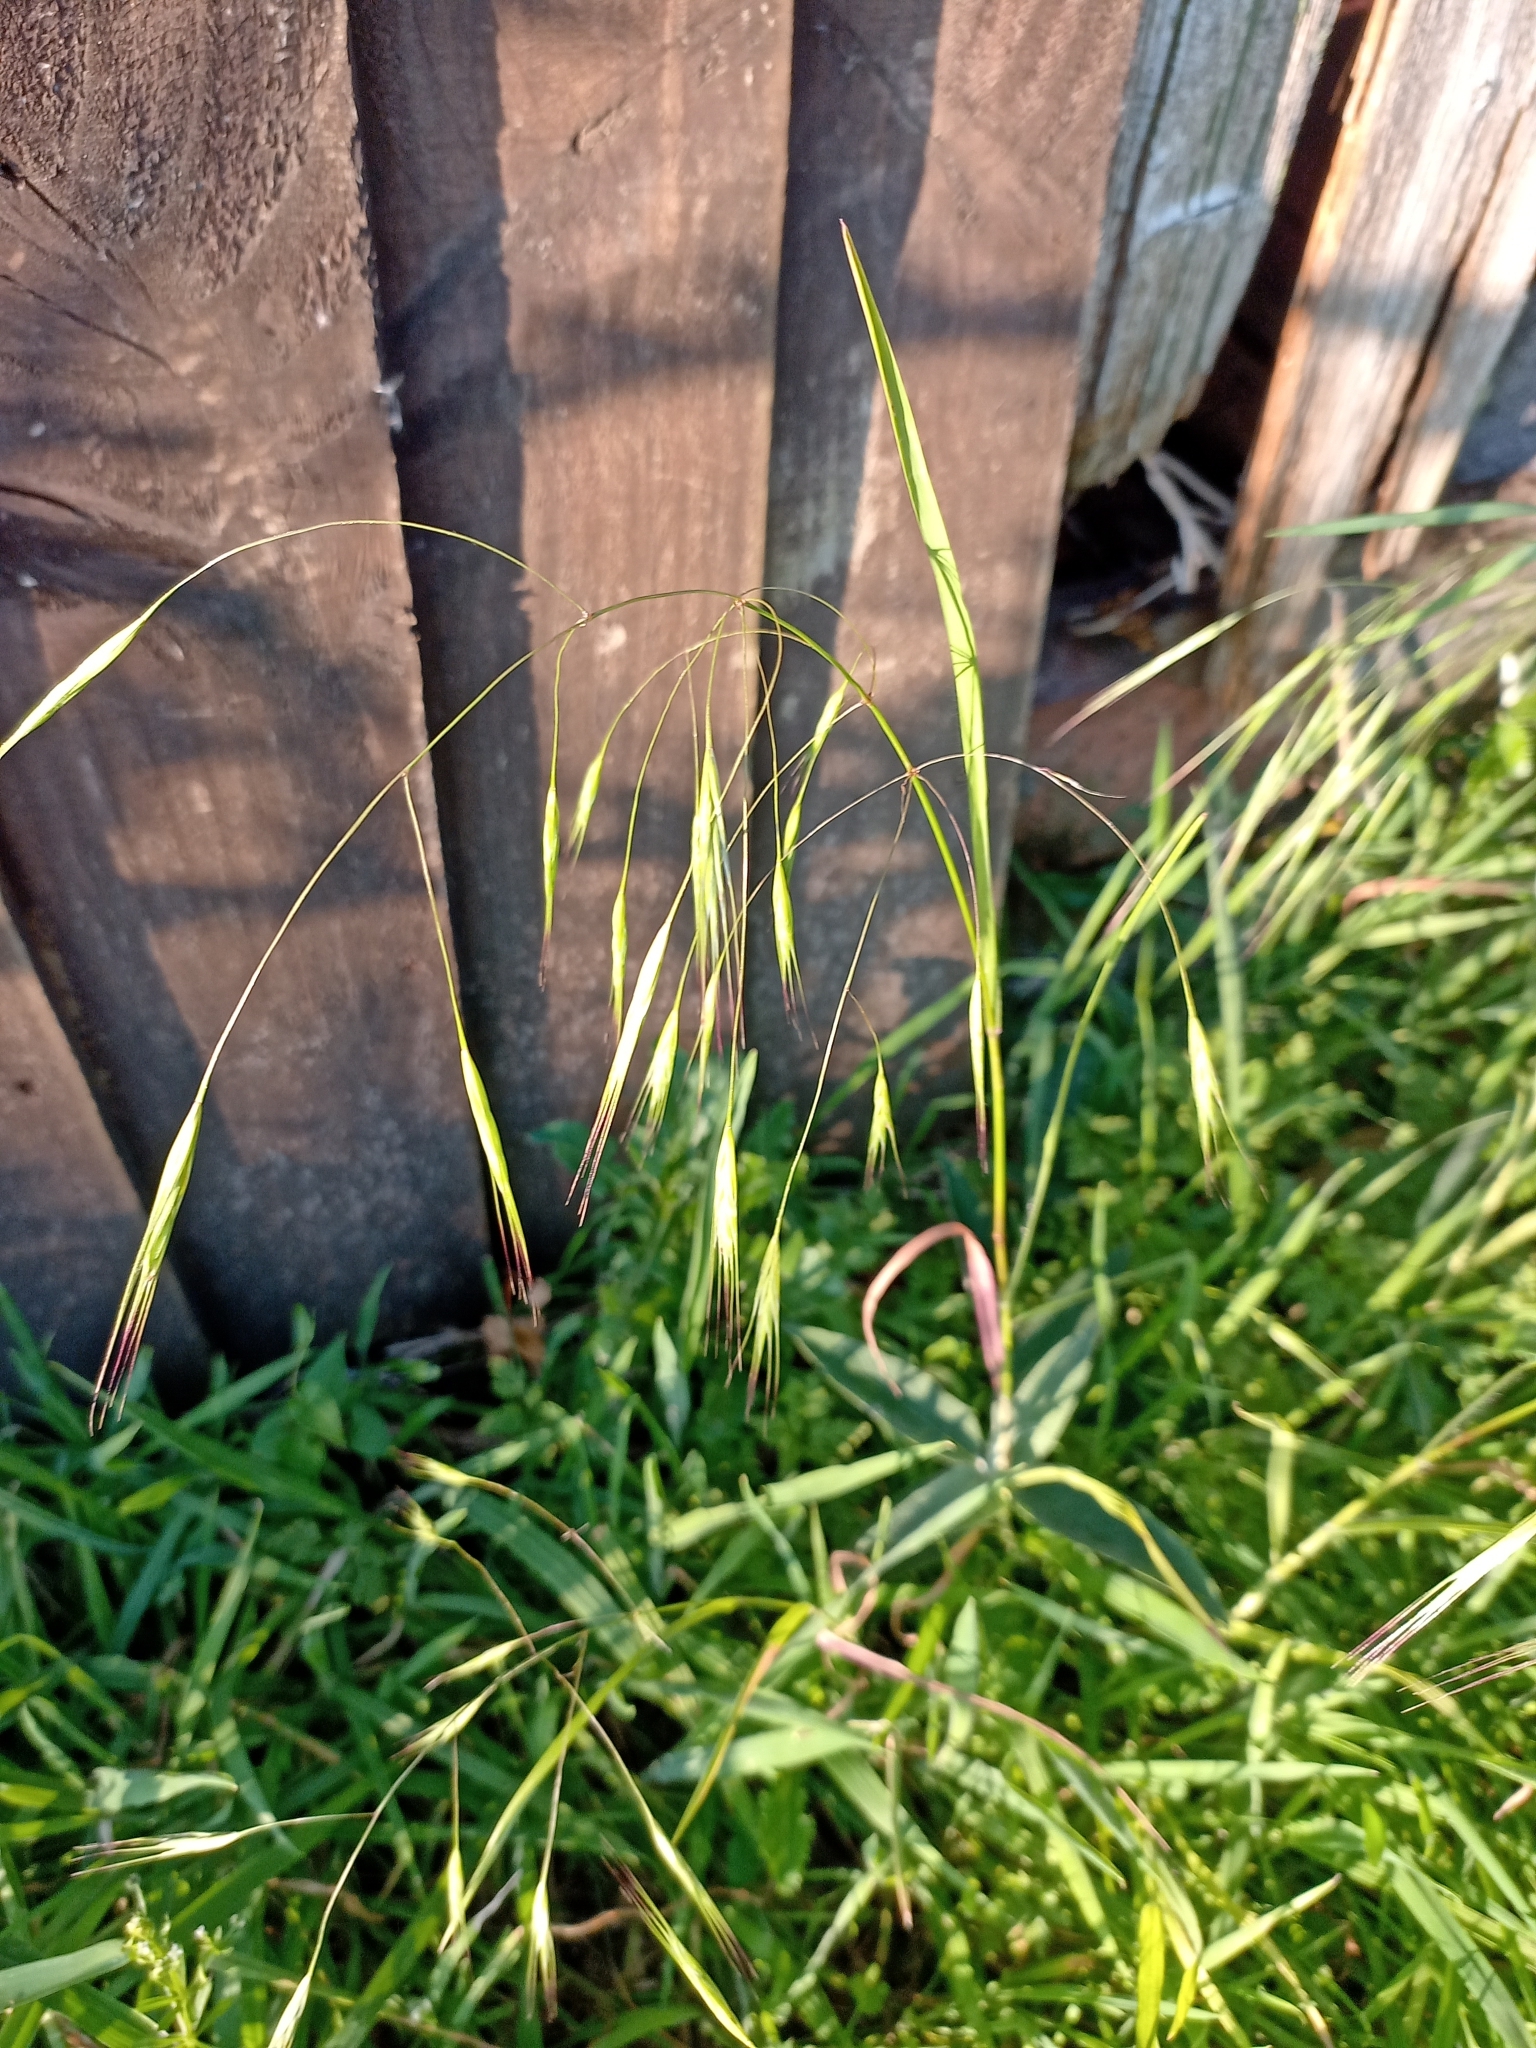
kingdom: Plantae
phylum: Tracheophyta
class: Liliopsida
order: Poales
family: Poaceae
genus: Bromus
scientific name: Bromus sterilis
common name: Poverty brome
